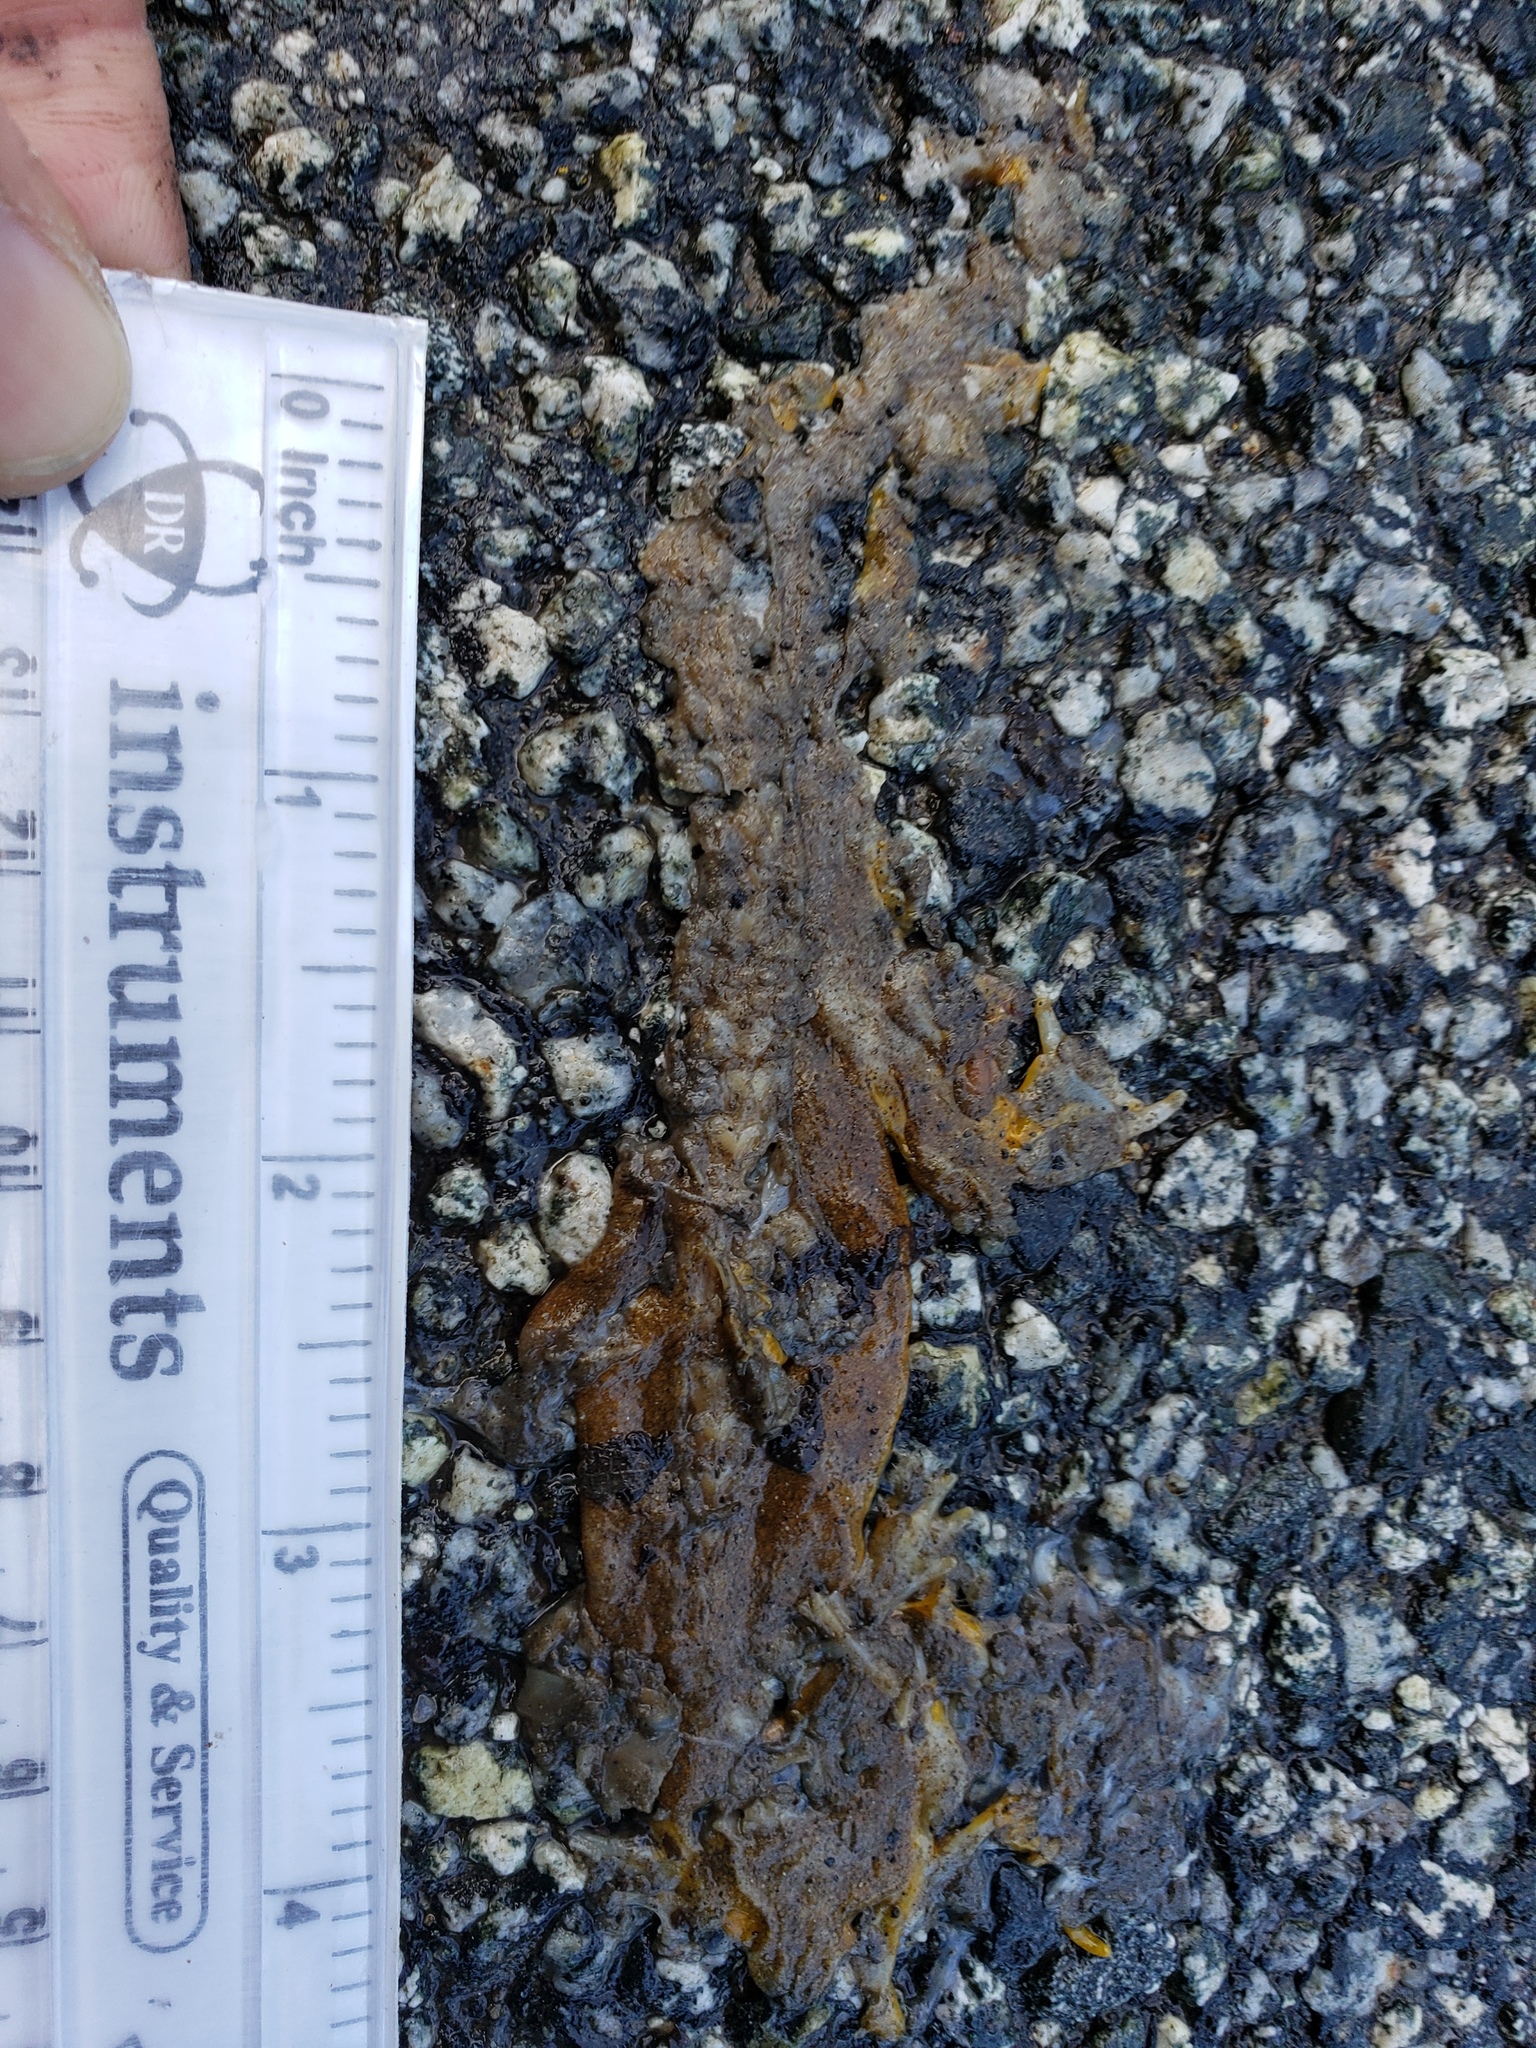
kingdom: Animalia
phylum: Chordata
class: Amphibia
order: Caudata
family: Salamandridae
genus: Taricha
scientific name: Taricha
